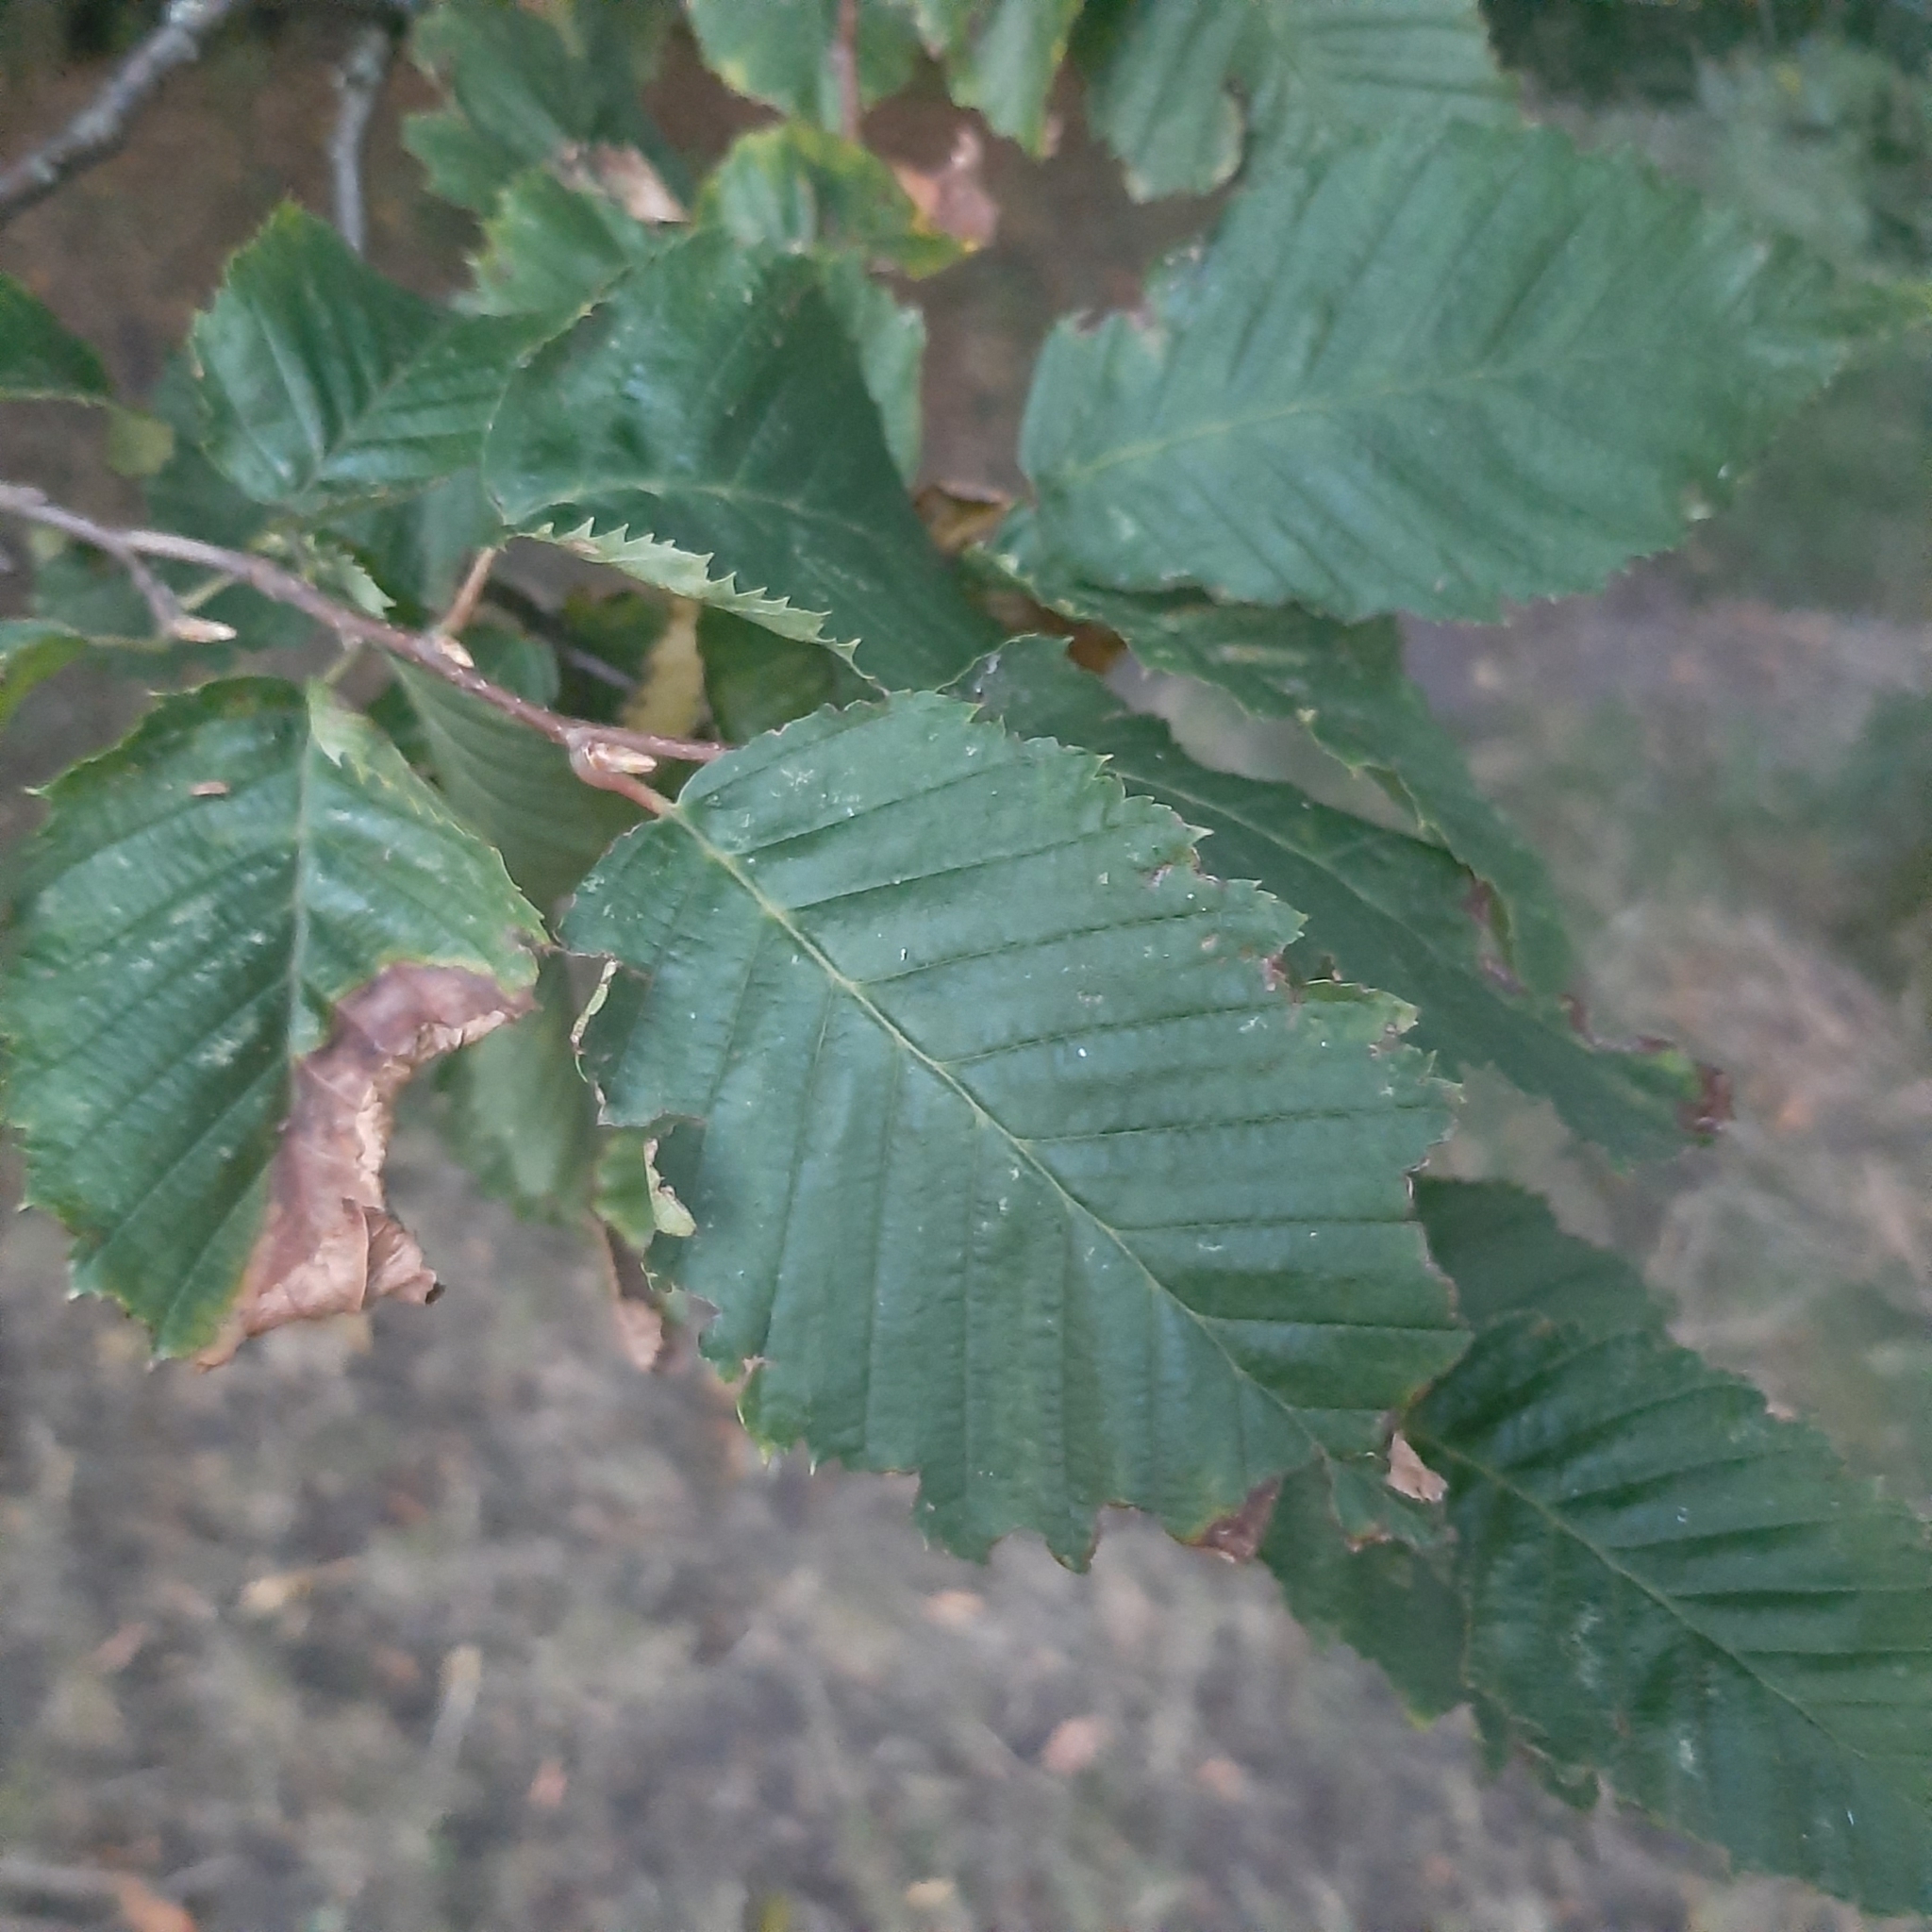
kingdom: Plantae
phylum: Tracheophyta
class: Magnoliopsida
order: Fagales
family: Betulaceae
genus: Carpinus
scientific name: Carpinus betulus
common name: Hornbeam
